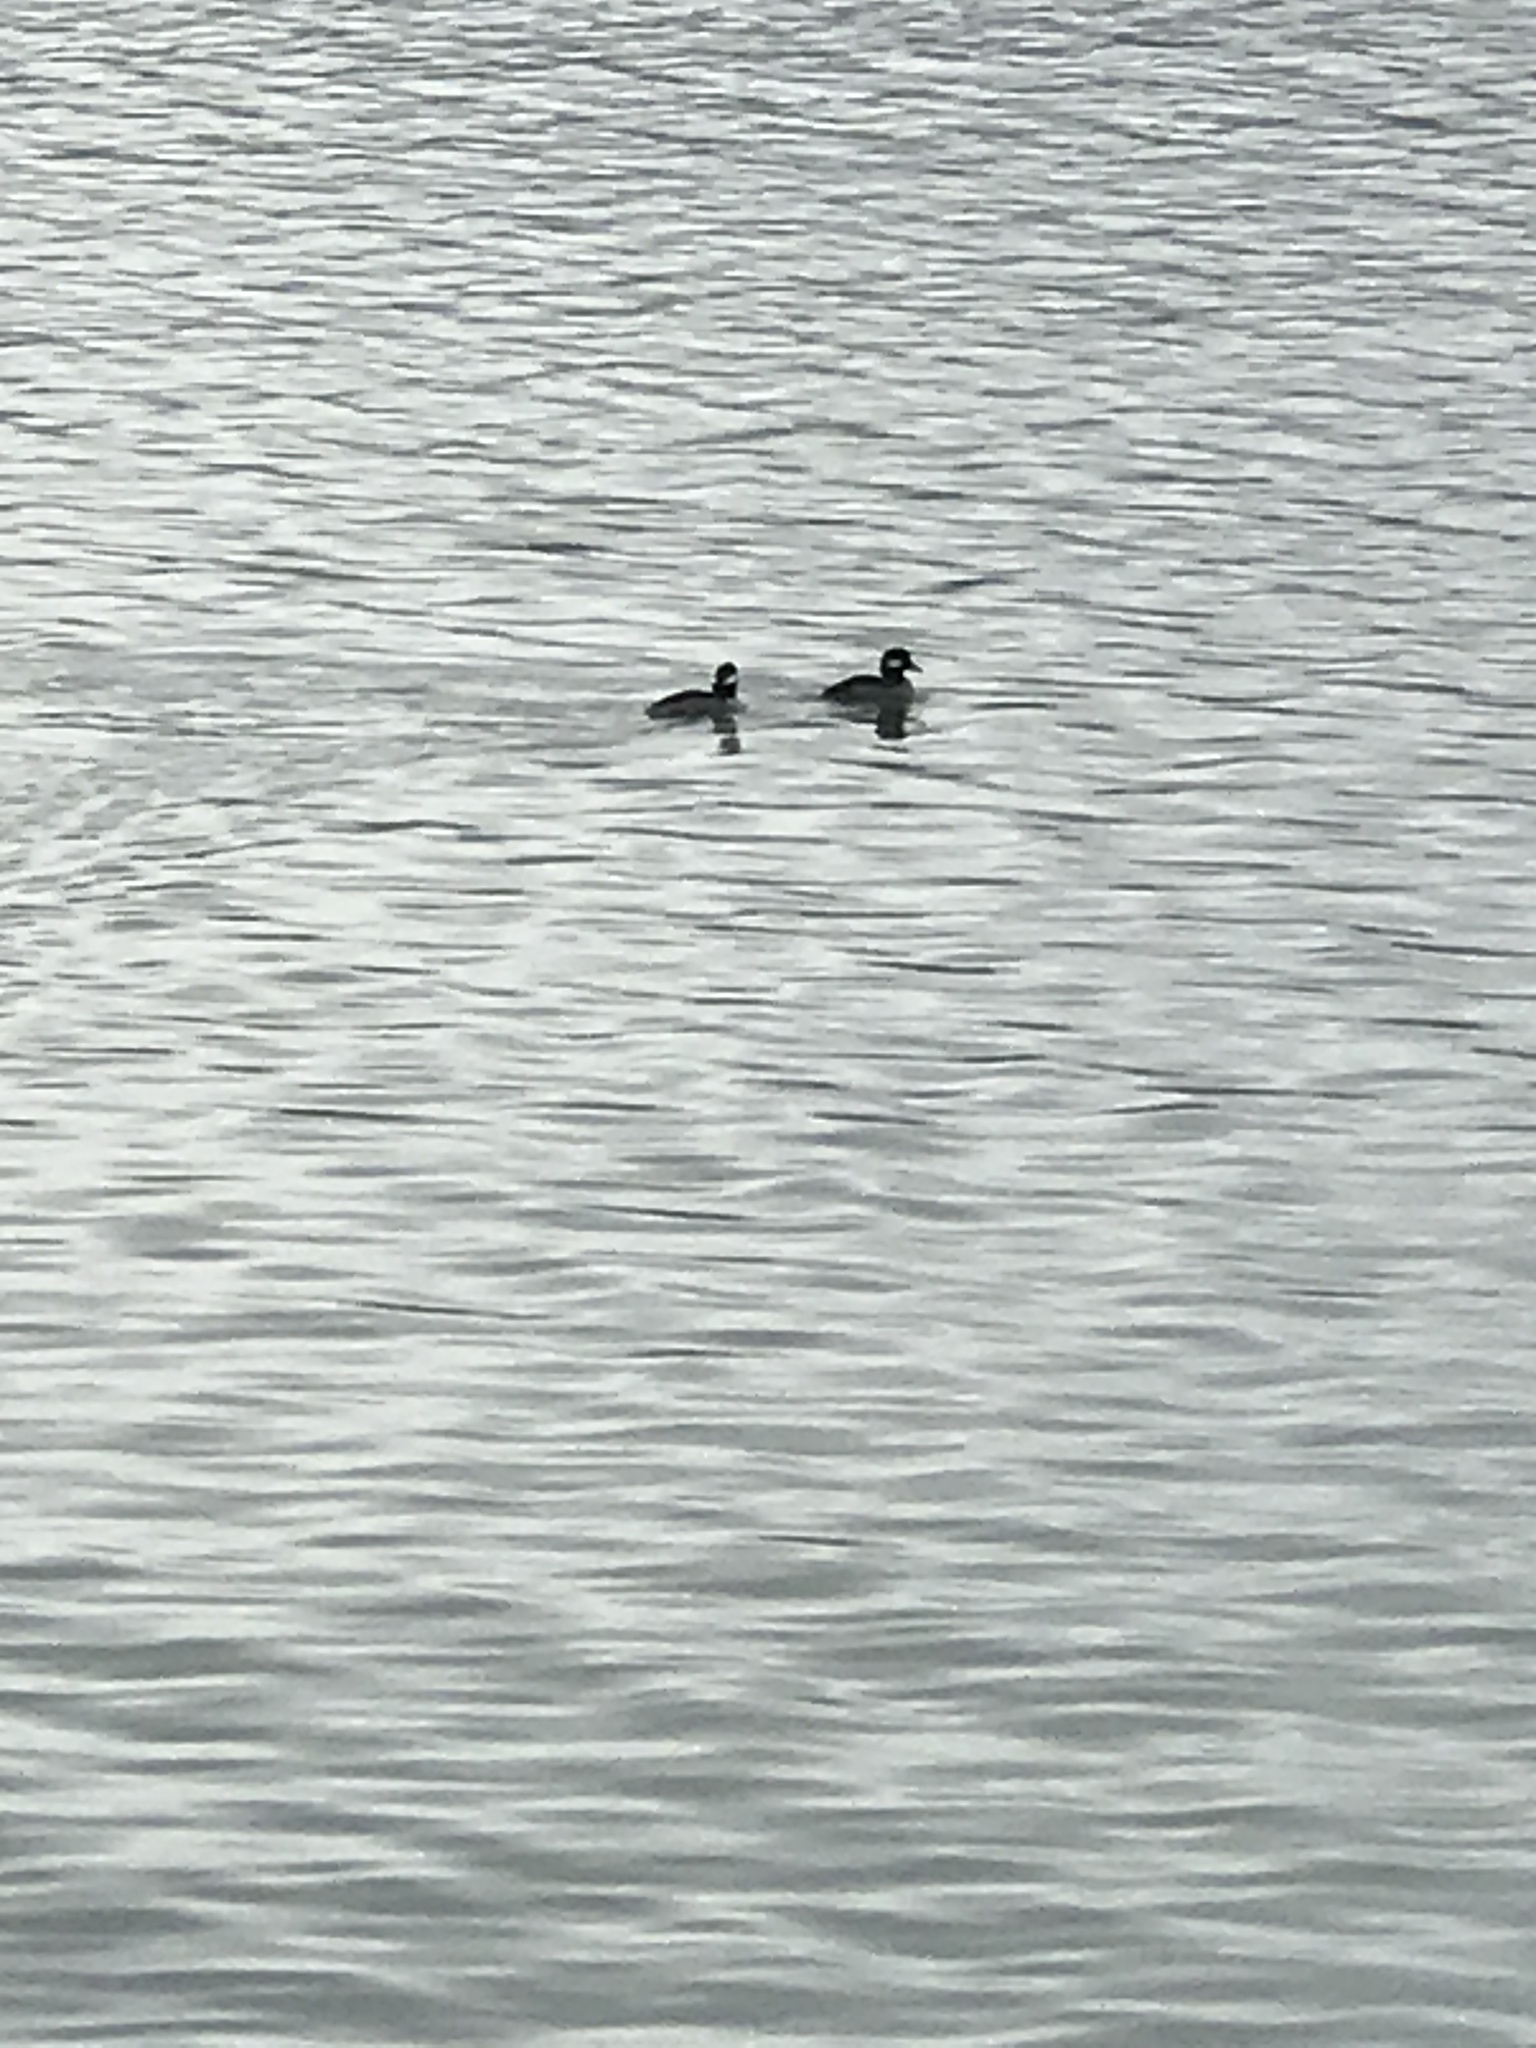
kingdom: Animalia
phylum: Chordata
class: Aves
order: Anseriformes
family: Anatidae
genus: Bucephala
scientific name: Bucephala albeola
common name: Bufflehead
